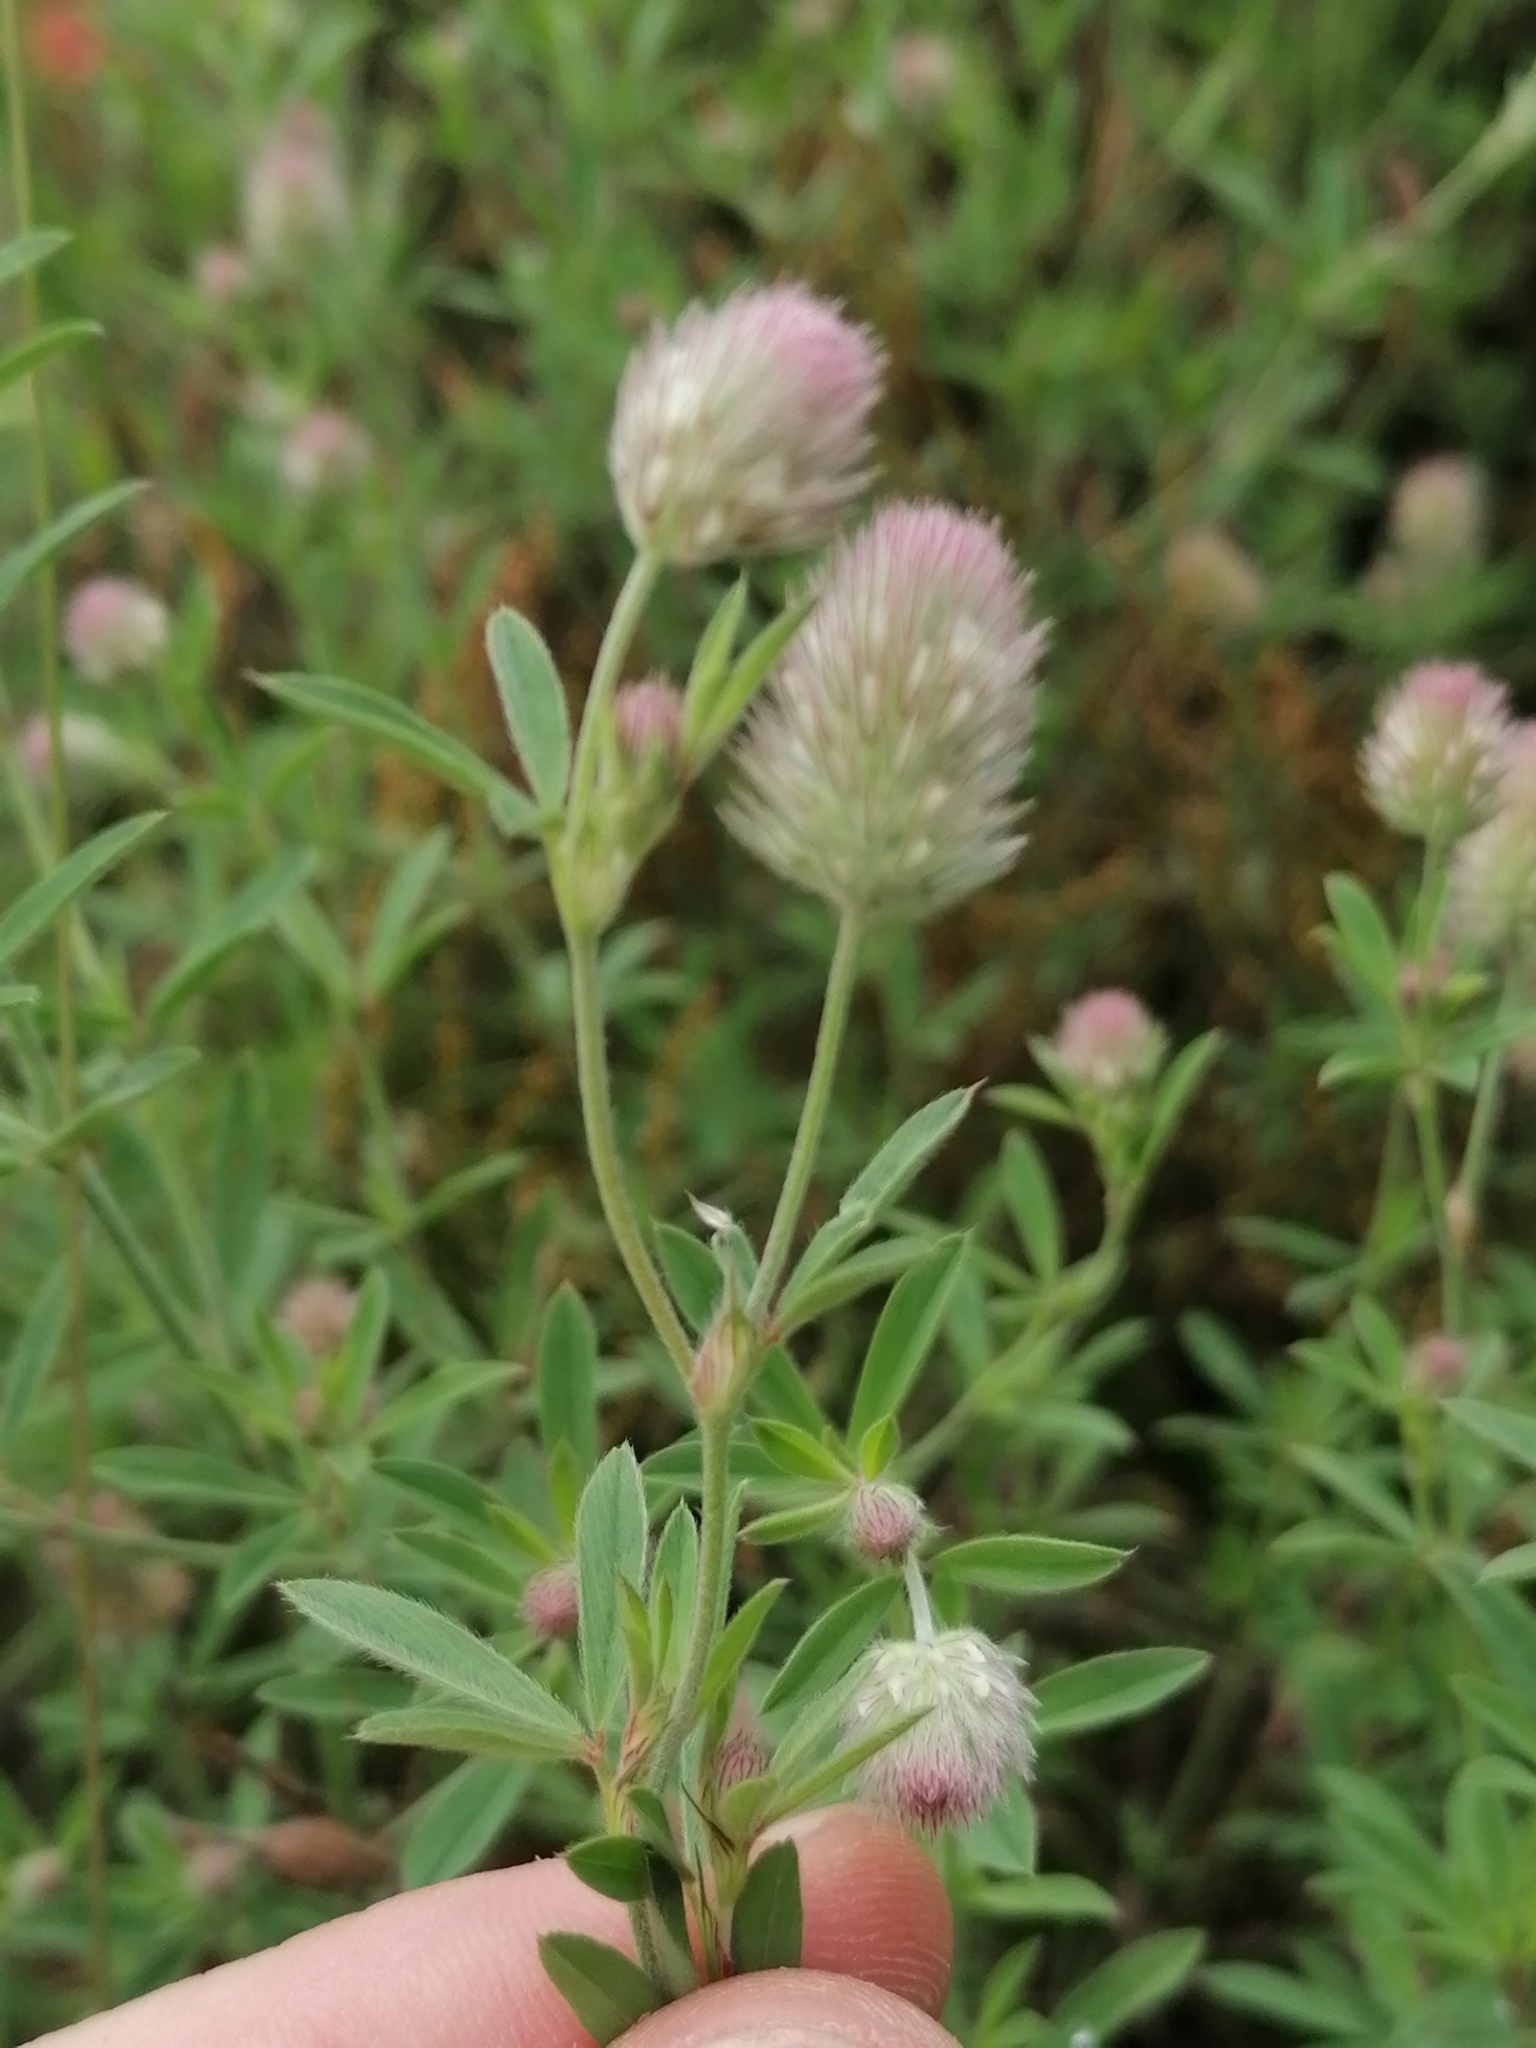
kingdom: Plantae
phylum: Tracheophyta
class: Magnoliopsida
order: Fabales
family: Fabaceae
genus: Trifolium
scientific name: Trifolium arvense
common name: Hare's-foot clover
